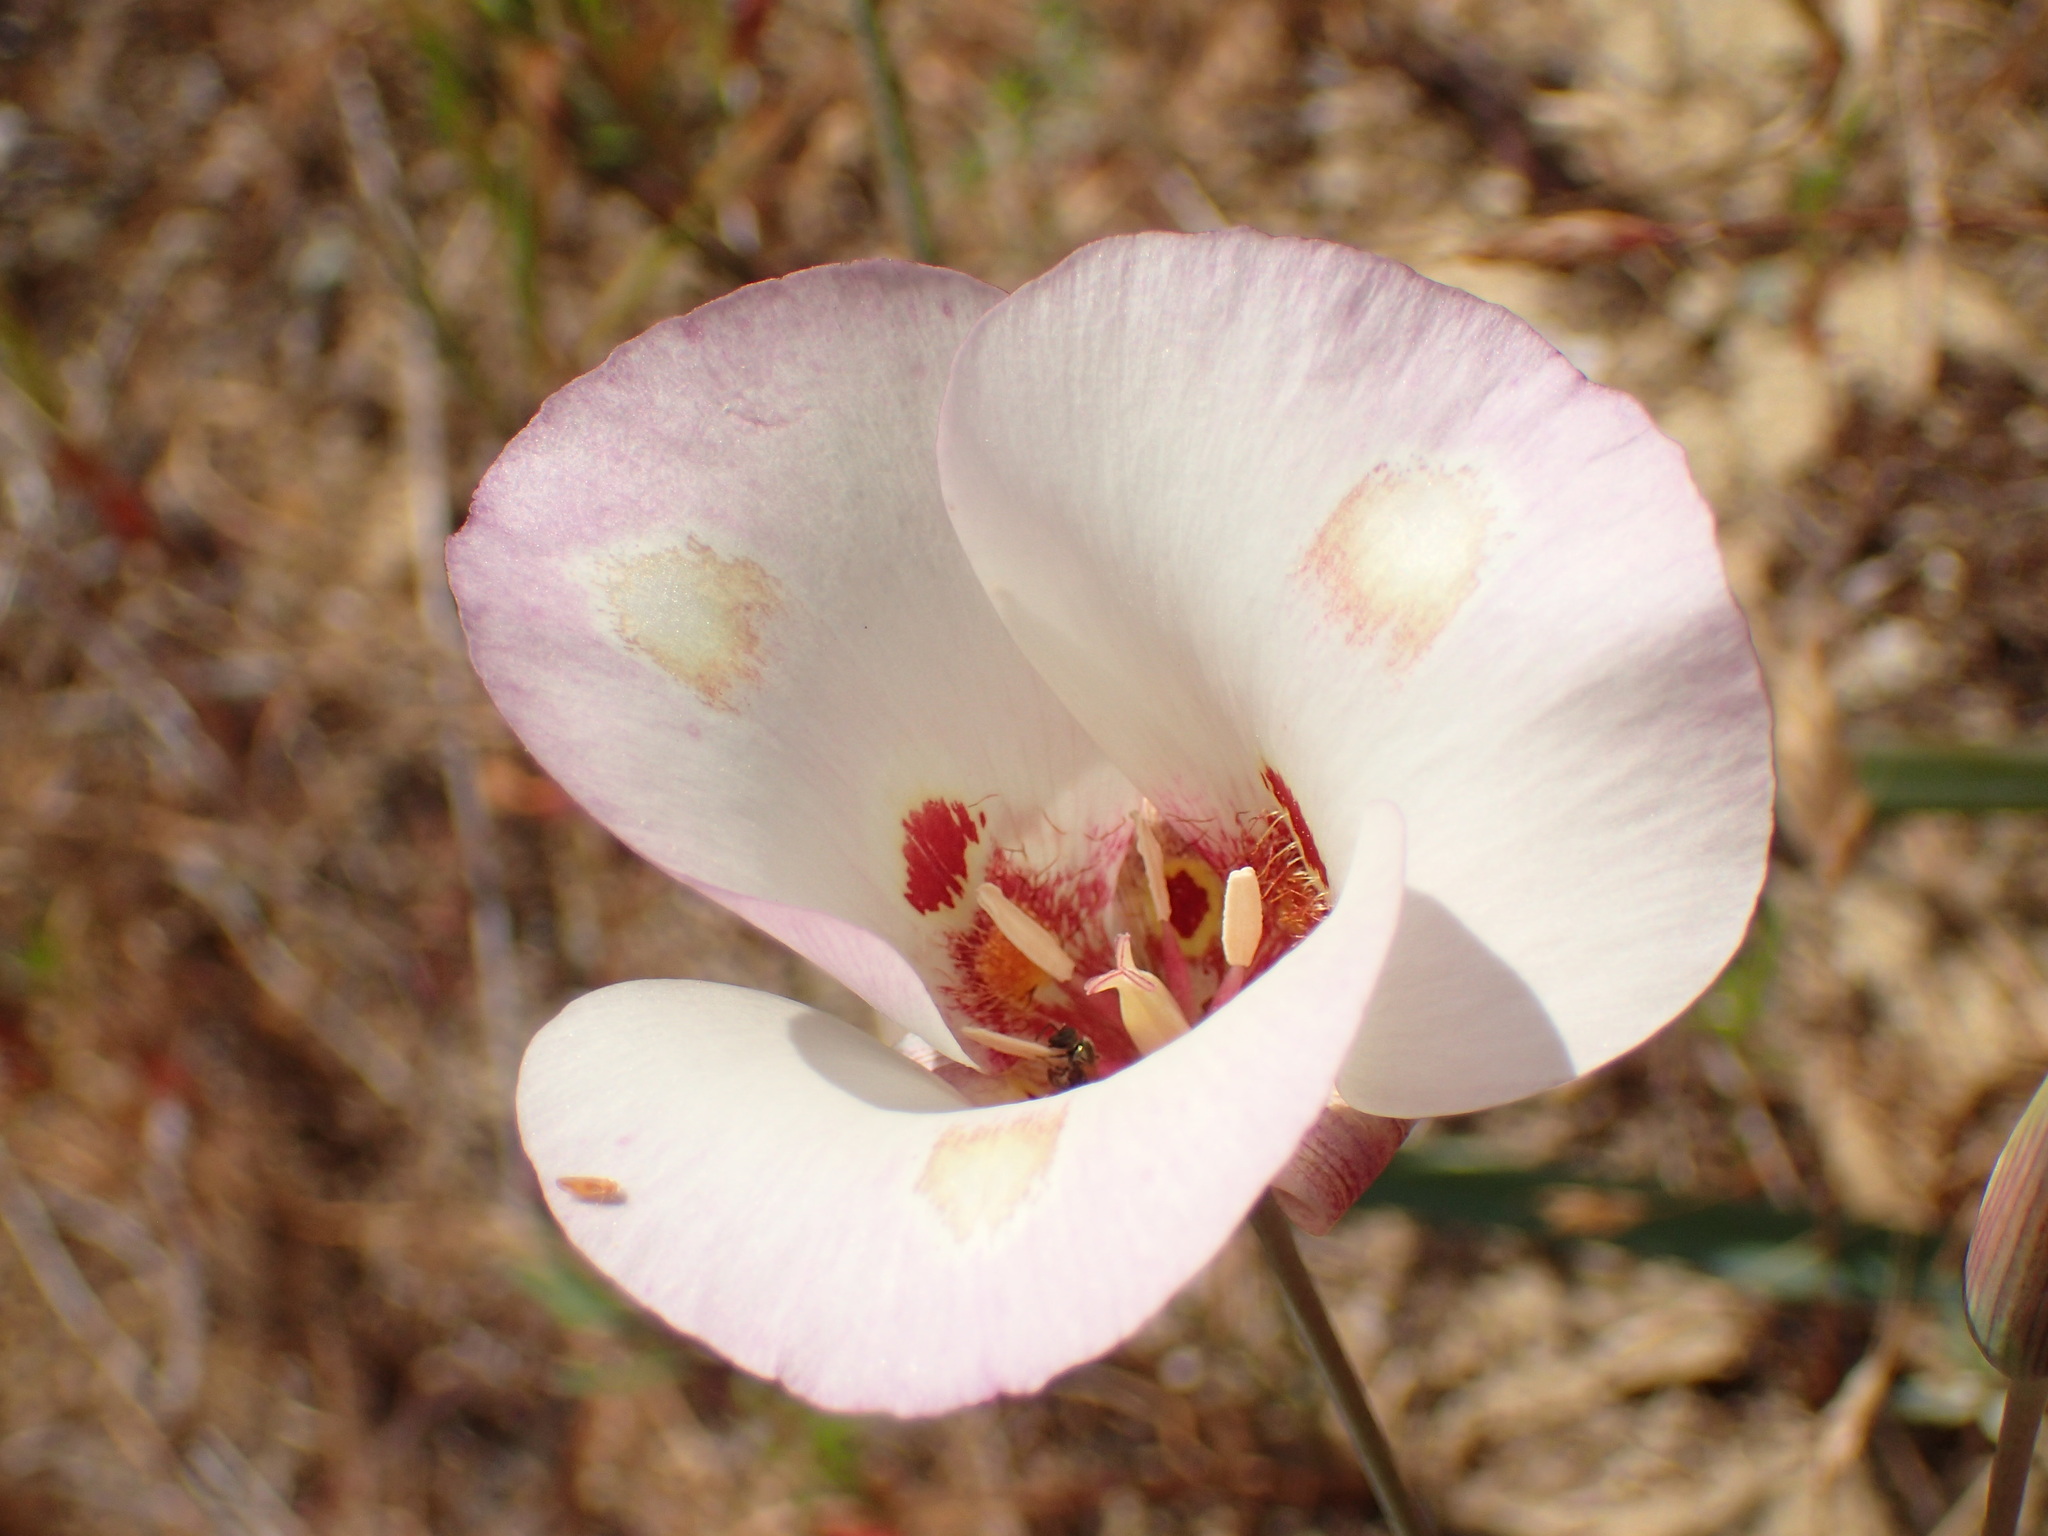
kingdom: Plantae
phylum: Tracheophyta
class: Liliopsida
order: Liliales
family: Liliaceae
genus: Calochortus
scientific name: Calochortus venustus
